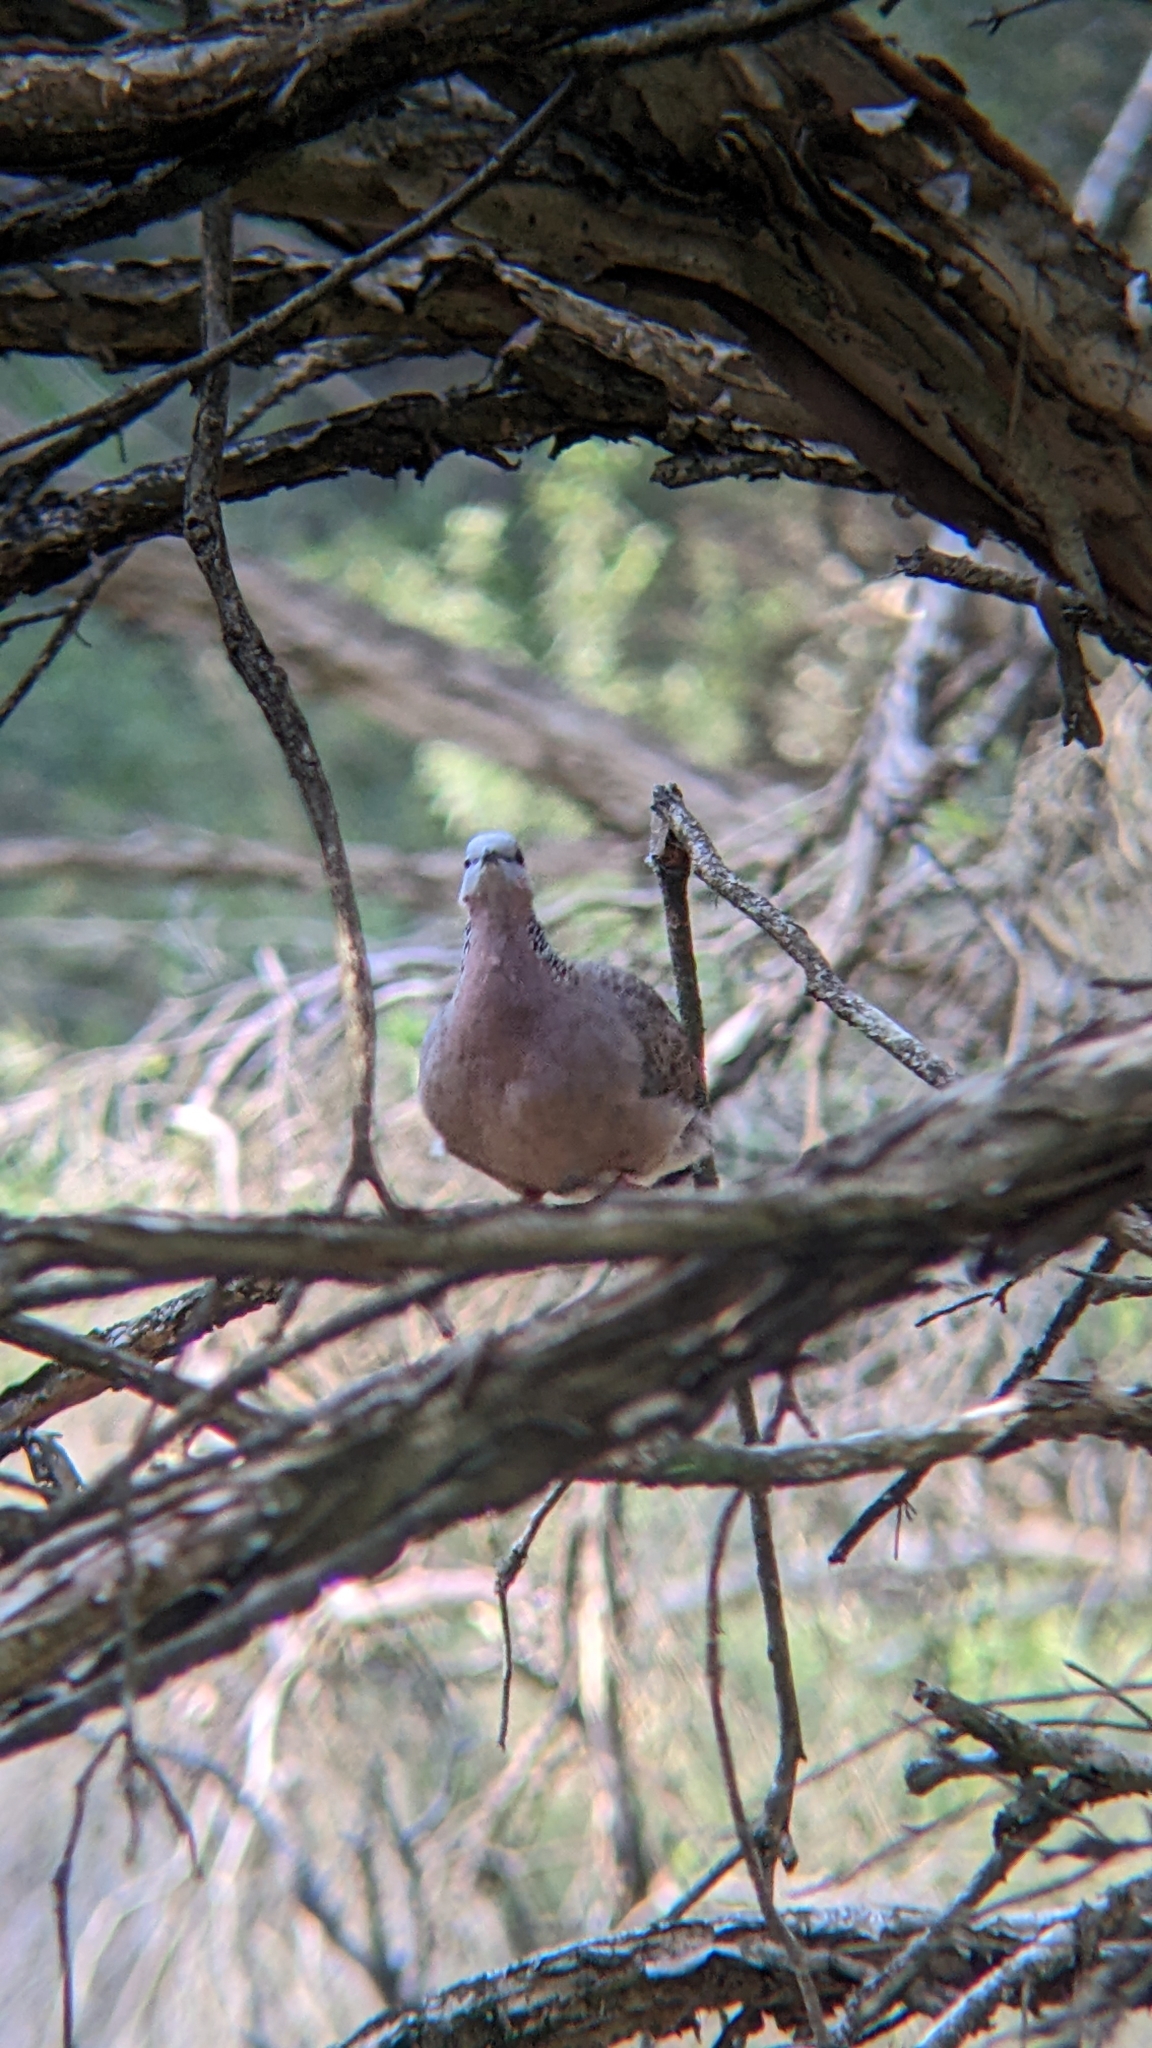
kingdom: Animalia
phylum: Chordata
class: Aves
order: Columbiformes
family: Columbidae
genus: Spilopelia
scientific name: Spilopelia chinensis
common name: Spotted dove
